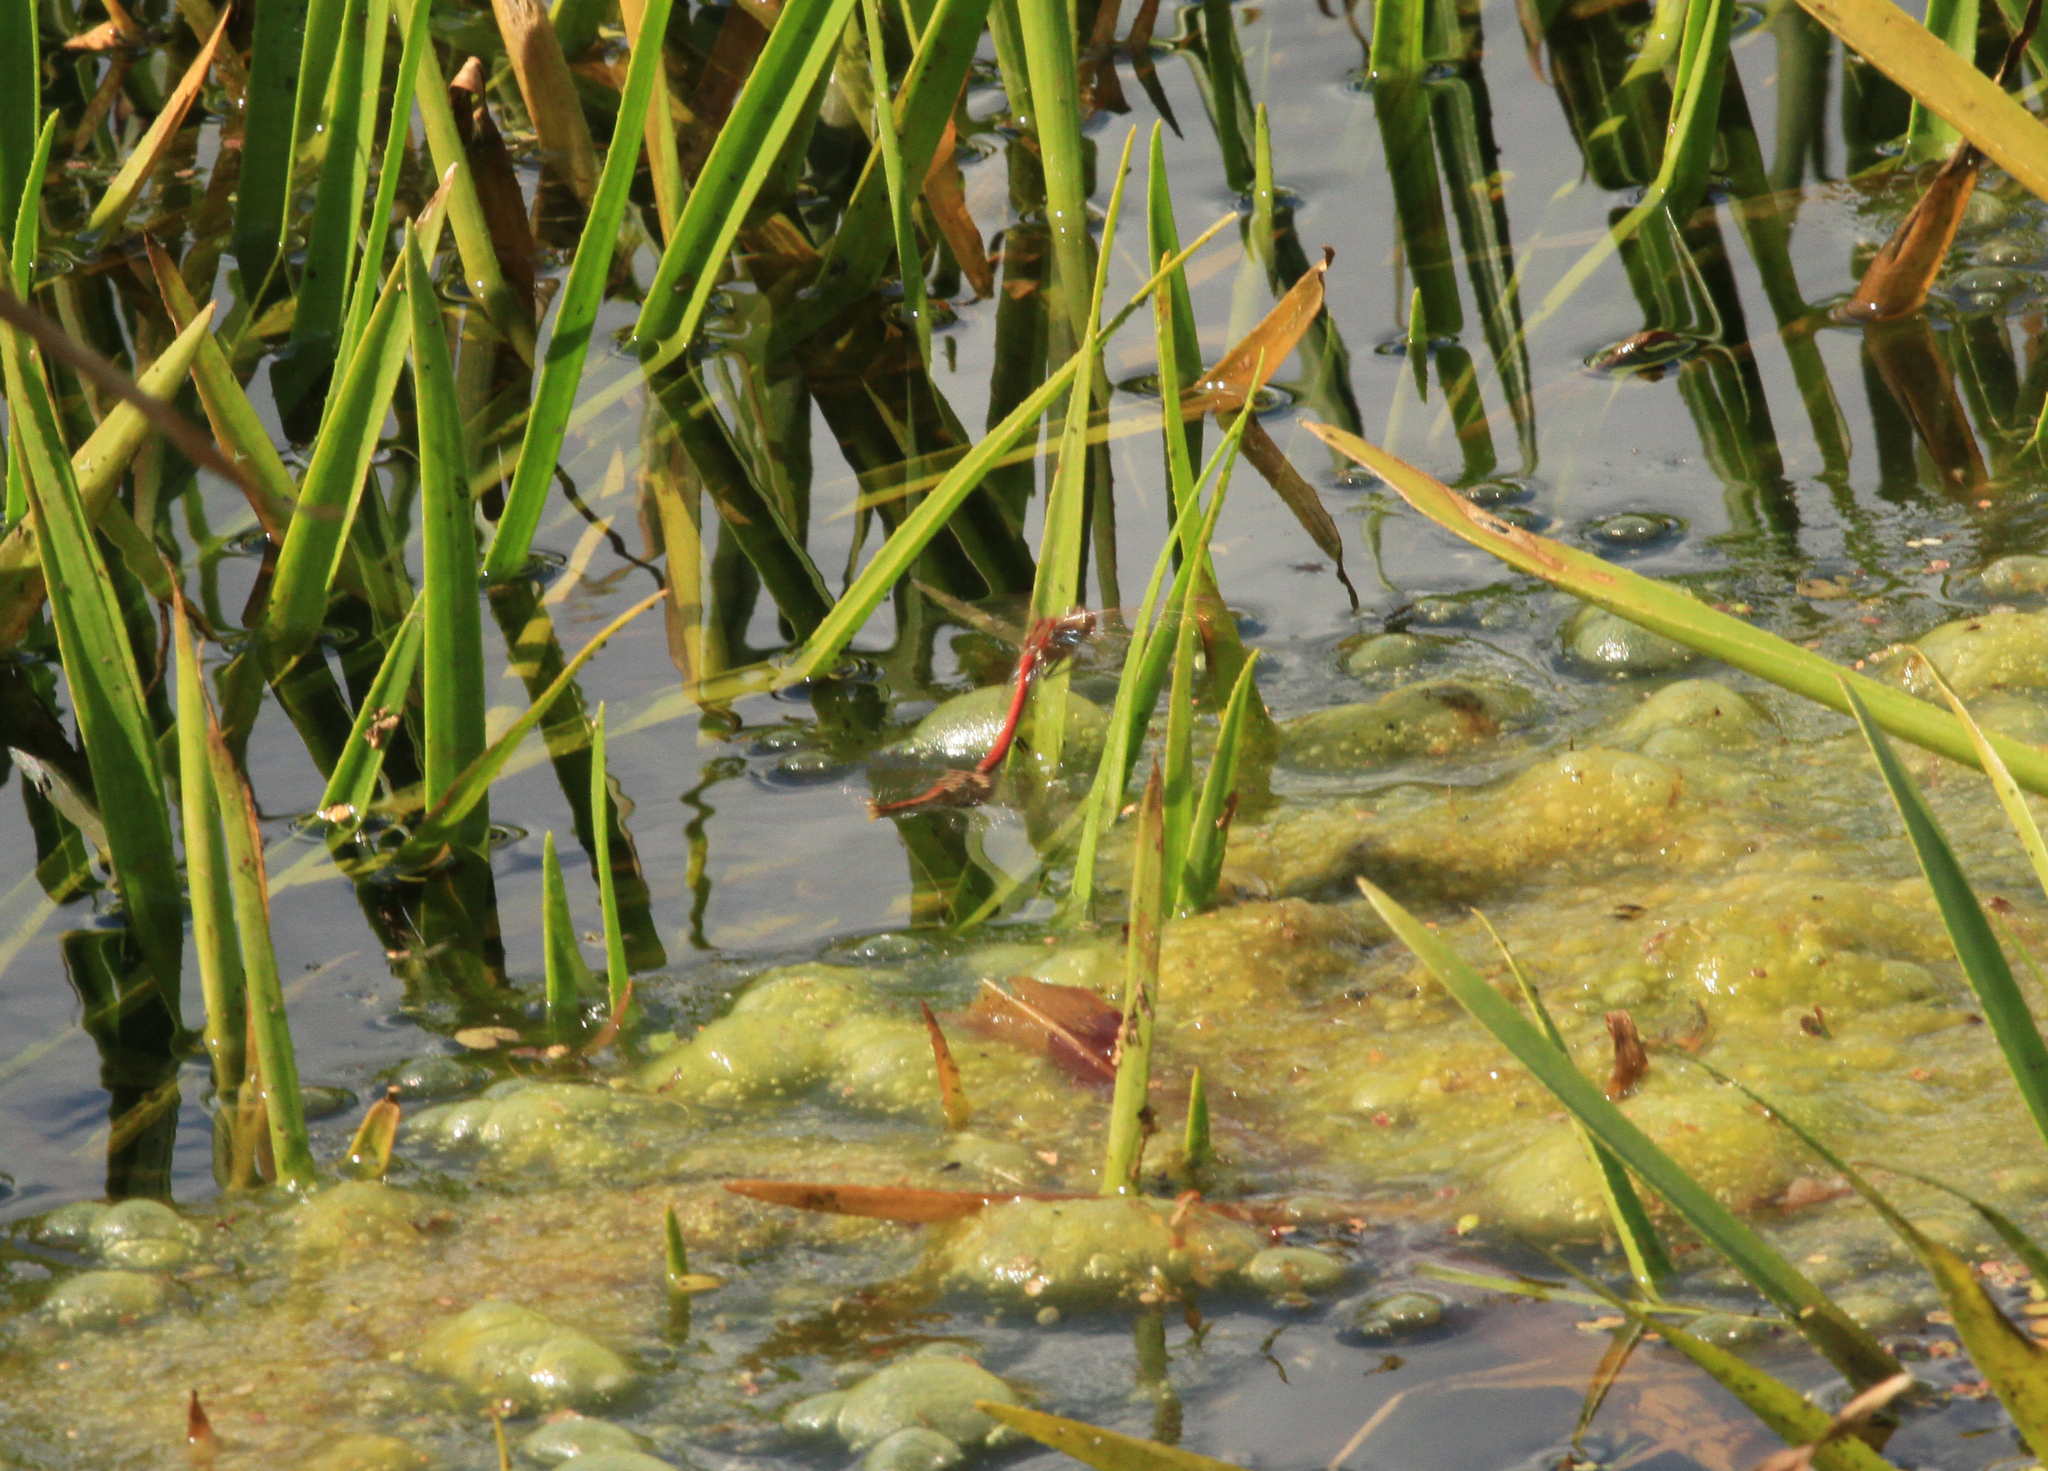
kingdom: Animalia
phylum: Arthropoda
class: Insecta
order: Odonata
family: Libellulidae
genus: Sympetrum
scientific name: Sympetrum vulgatum
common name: Vagrant darter
